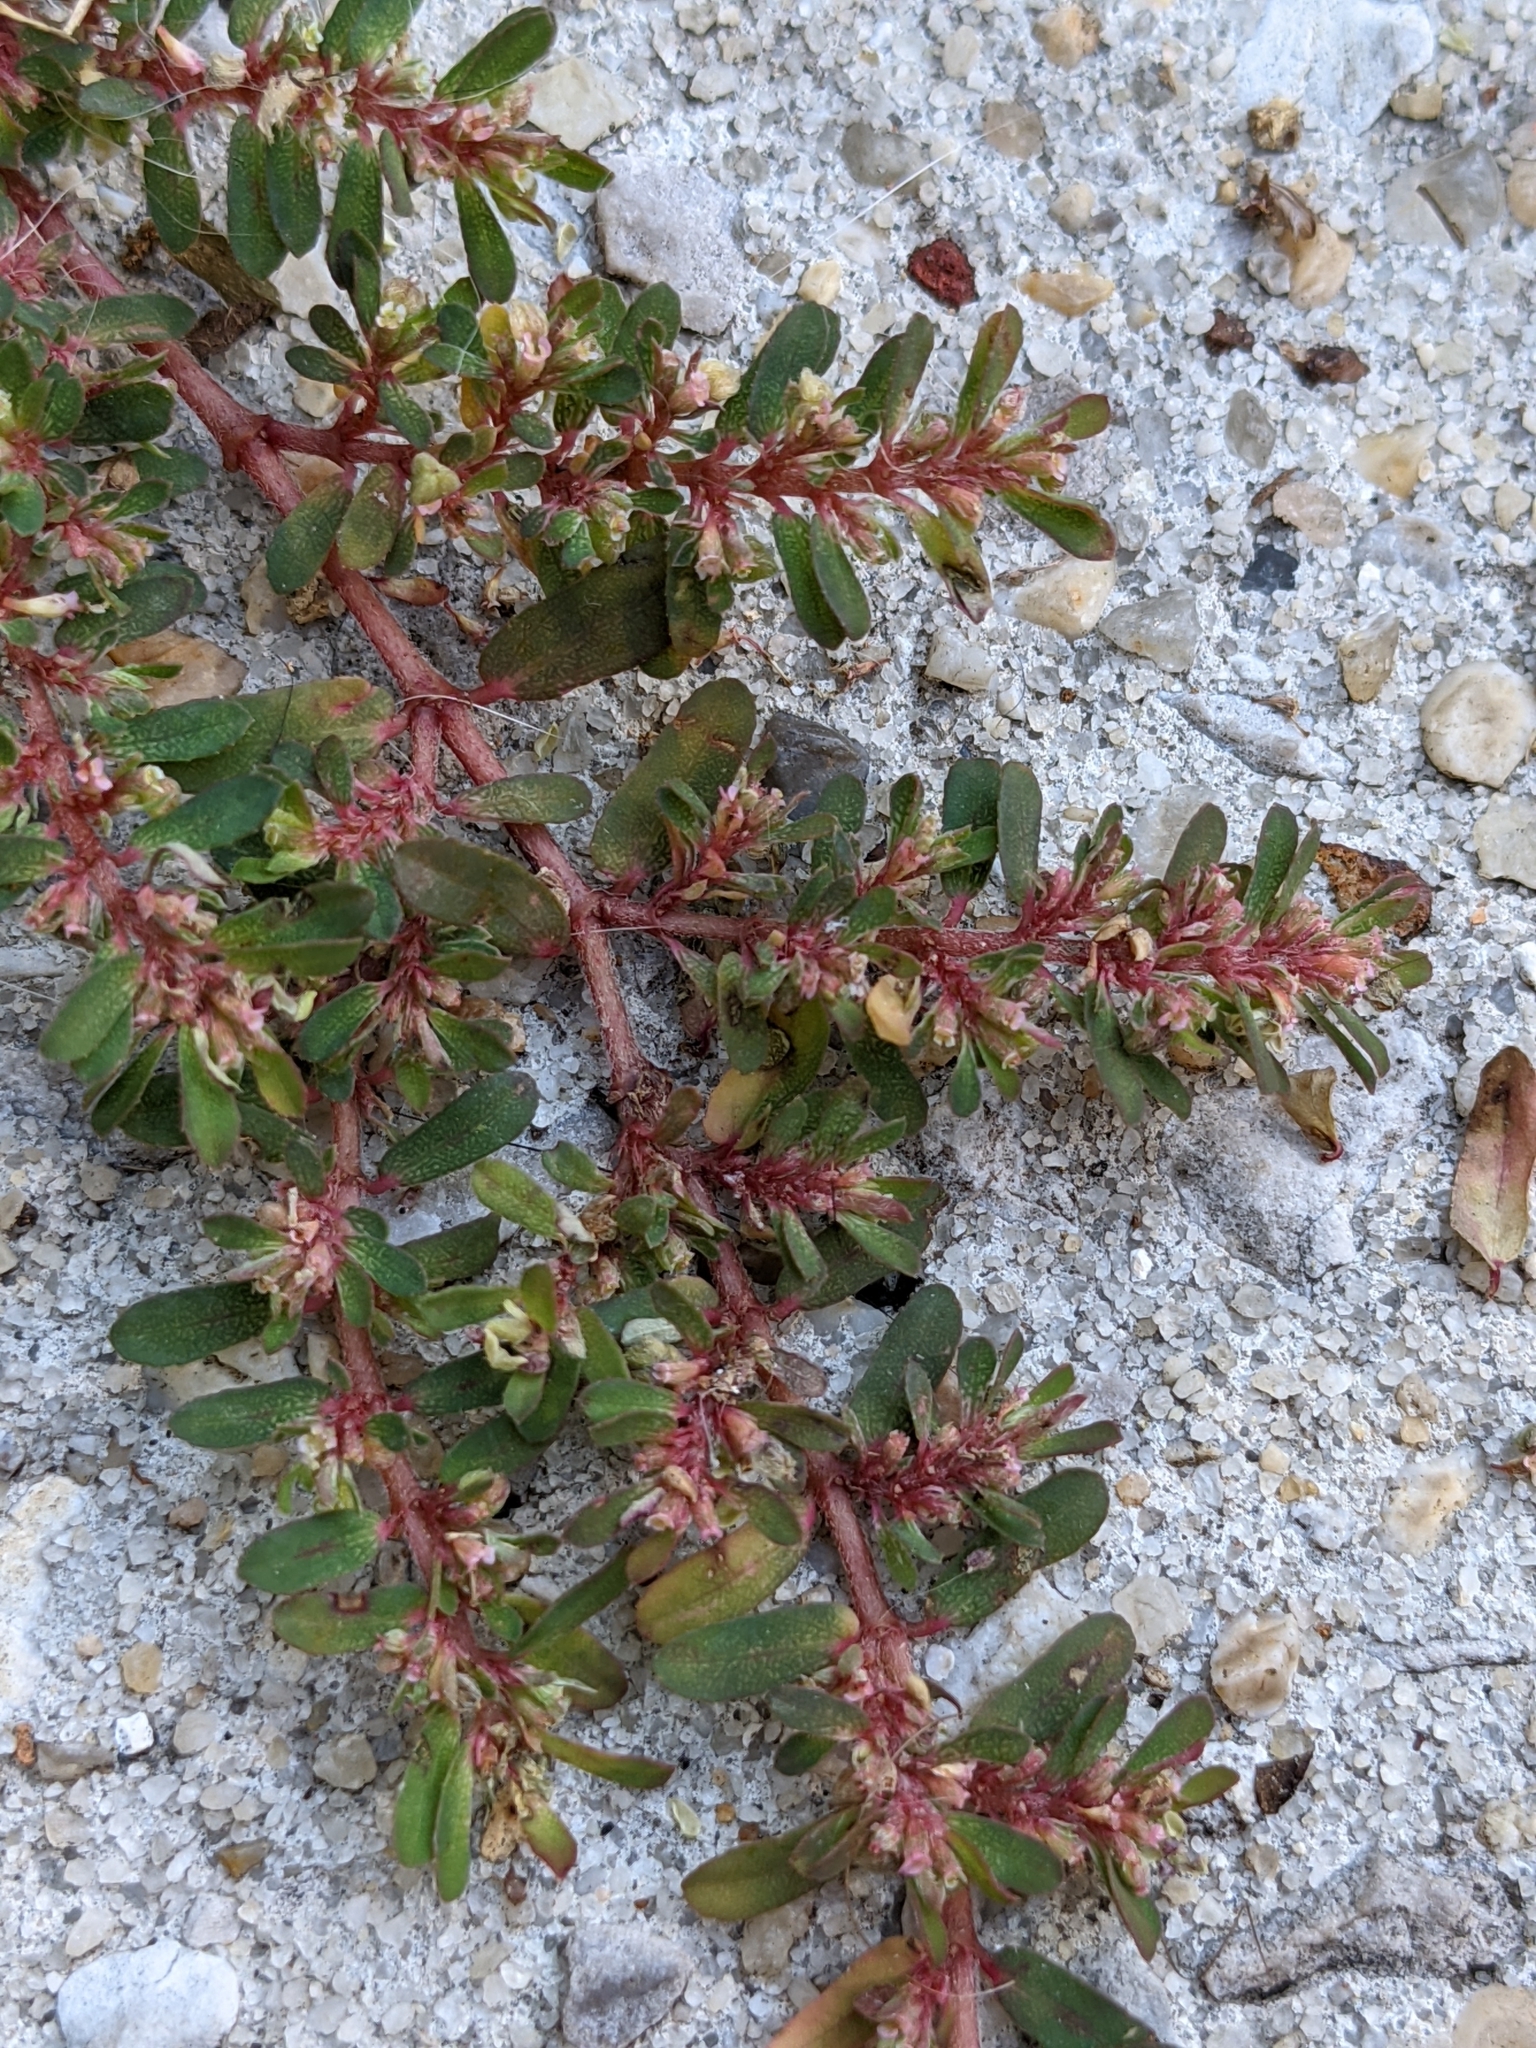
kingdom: Plantae
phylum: Tracheophyta
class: Magnoliopsida
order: Malpighiales
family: Euphorbiaceae
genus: Euphorbia
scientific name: Euphorbia maculata
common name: Spotted spurge
